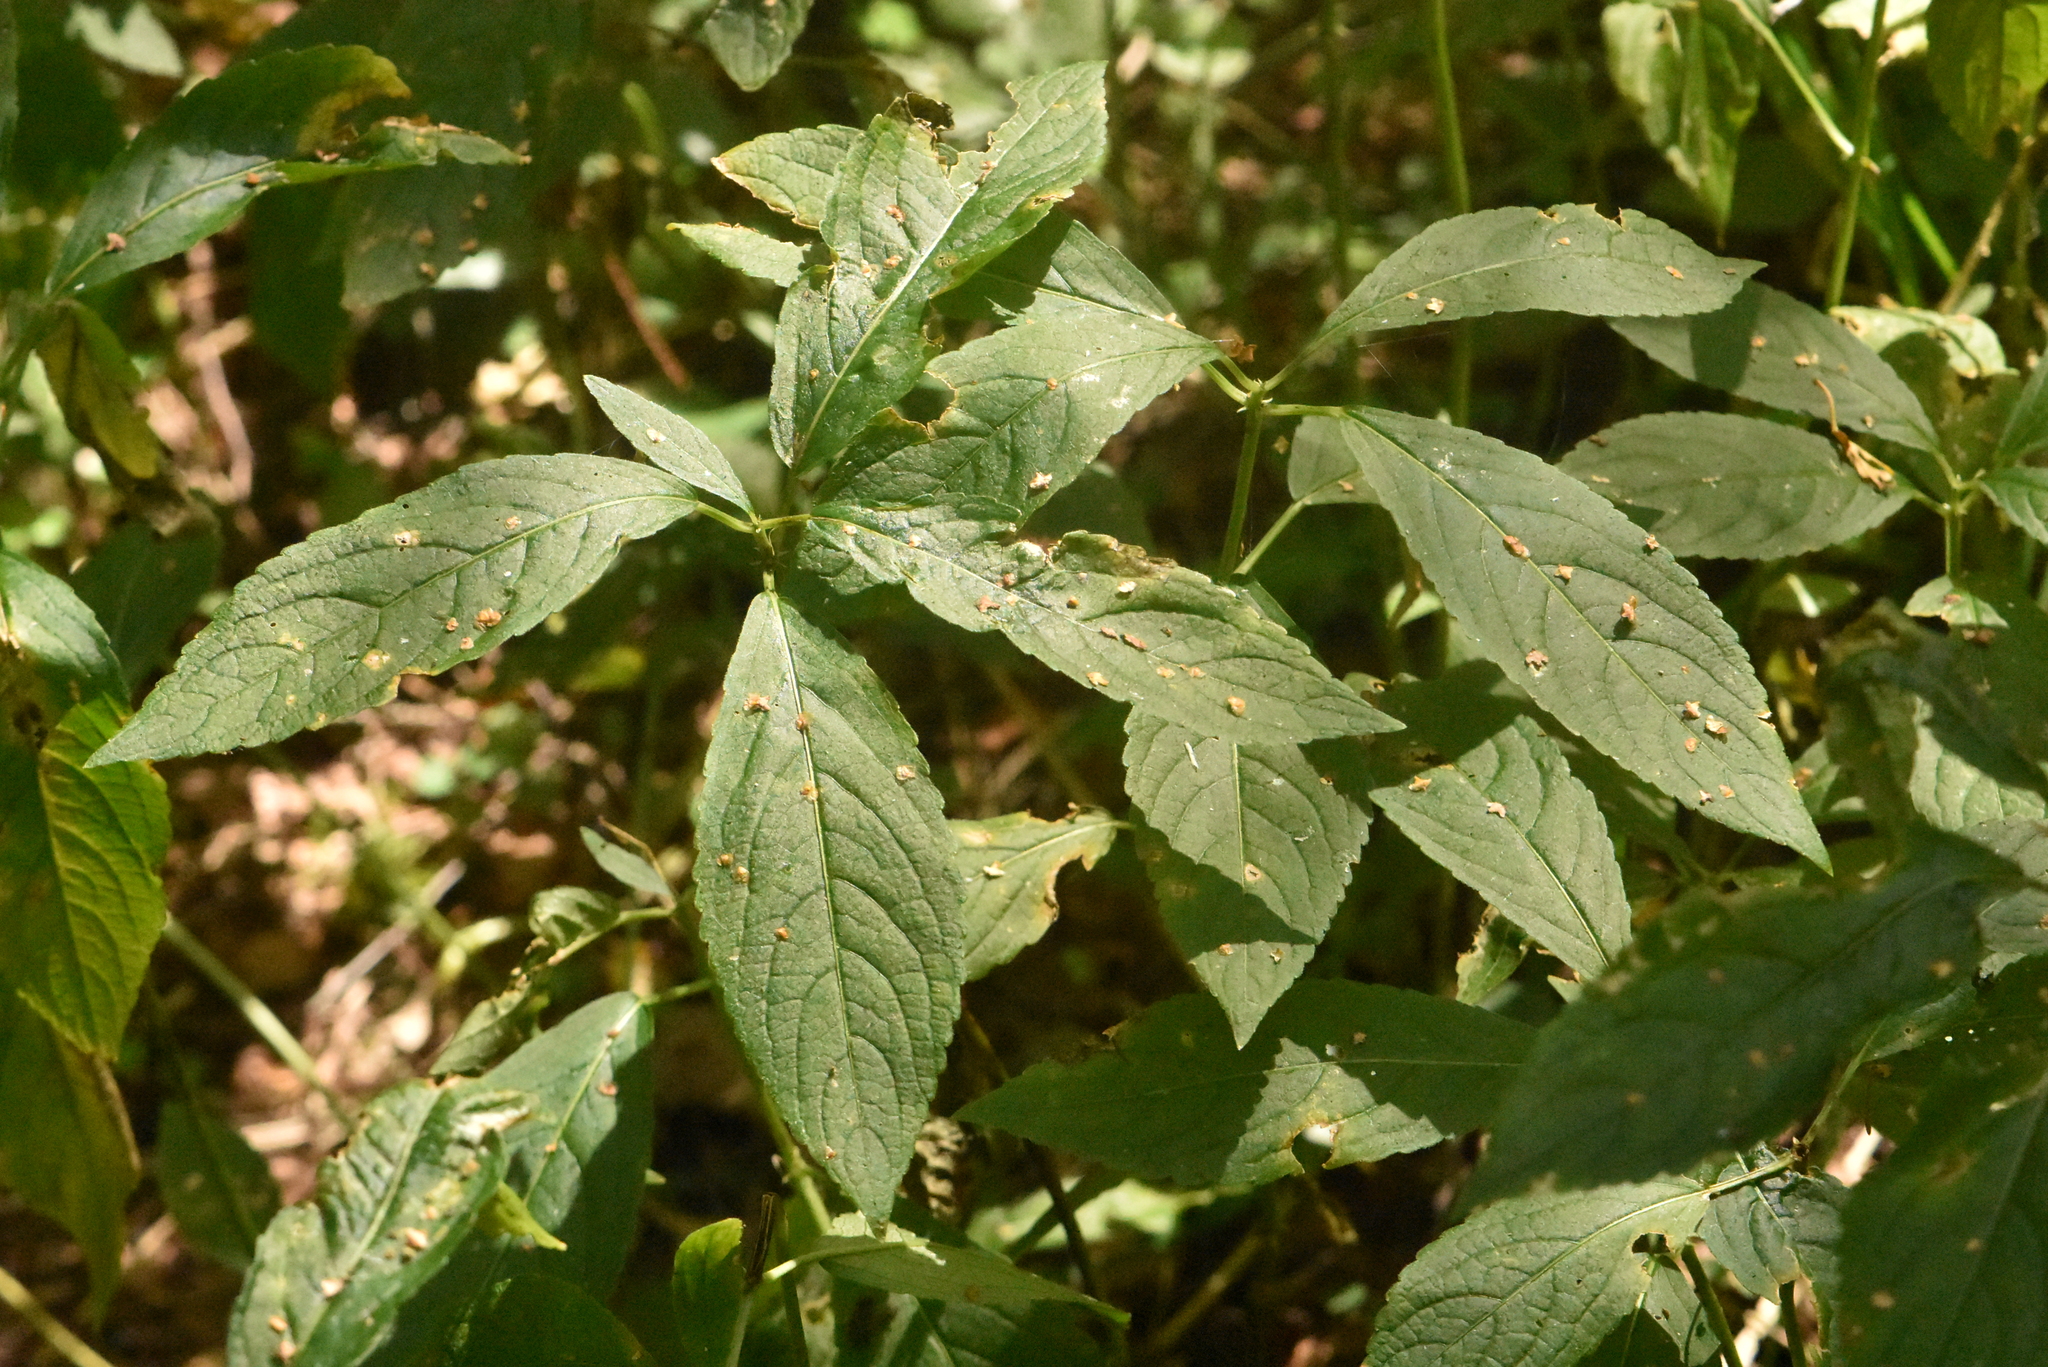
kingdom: Plantae
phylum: Tracheophyta
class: Magnoliopsida
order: Malpighiales
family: Euphorbiaceae
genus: Mercurialis
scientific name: Mercurialis perennis
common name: Dog mercury
